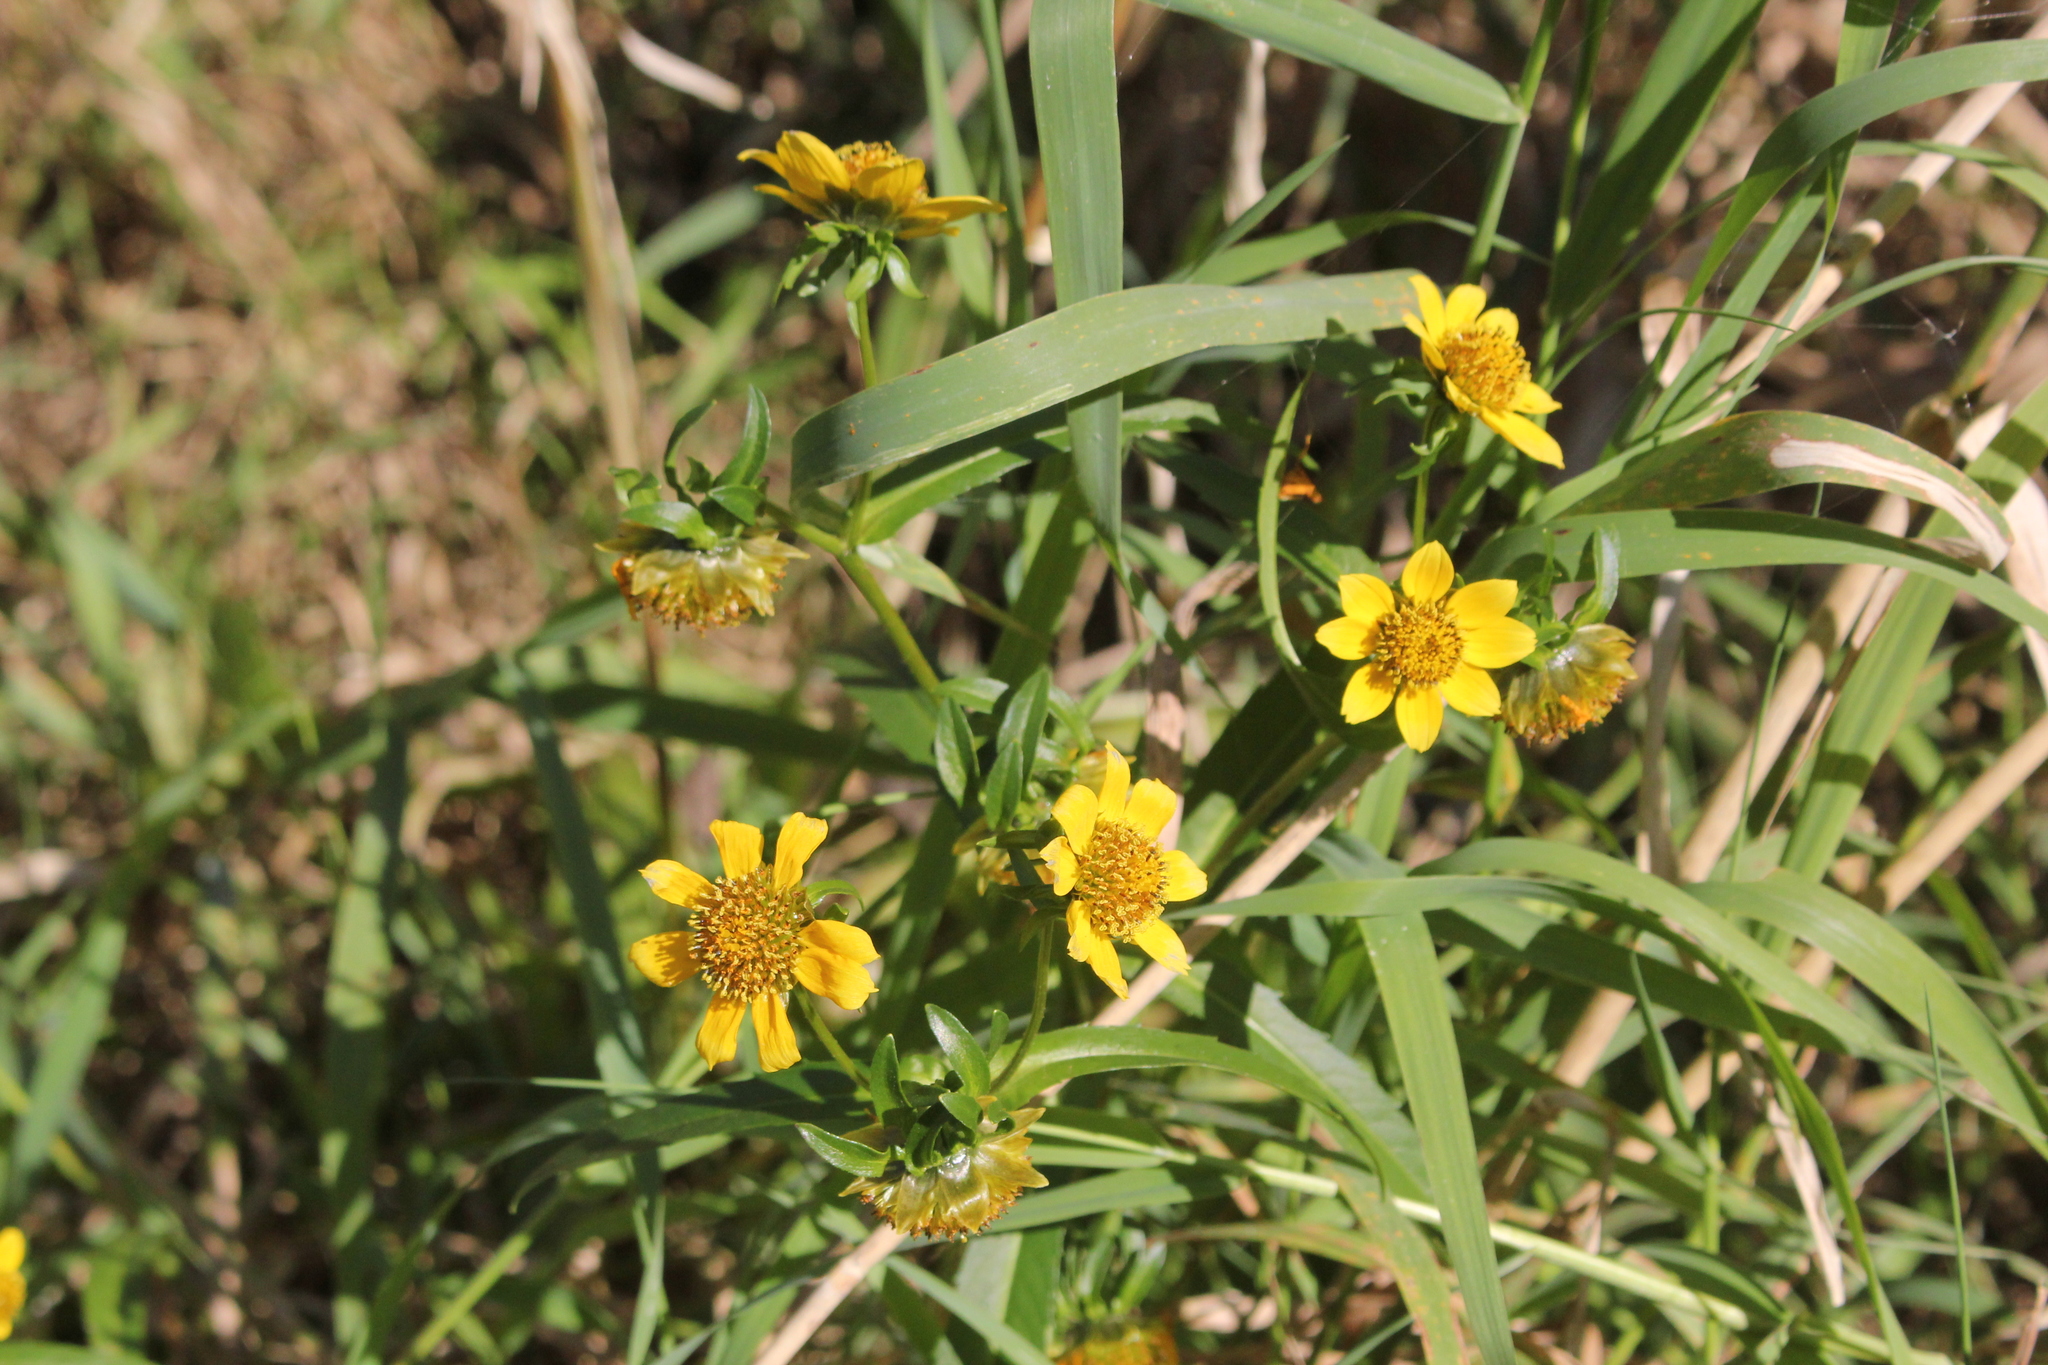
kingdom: Plantae
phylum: Tracheophyta
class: Magnoliopsida
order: Asterales
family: Asteraceae
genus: Bidens
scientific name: Bidens cernua
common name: Nodding bur-marigold
